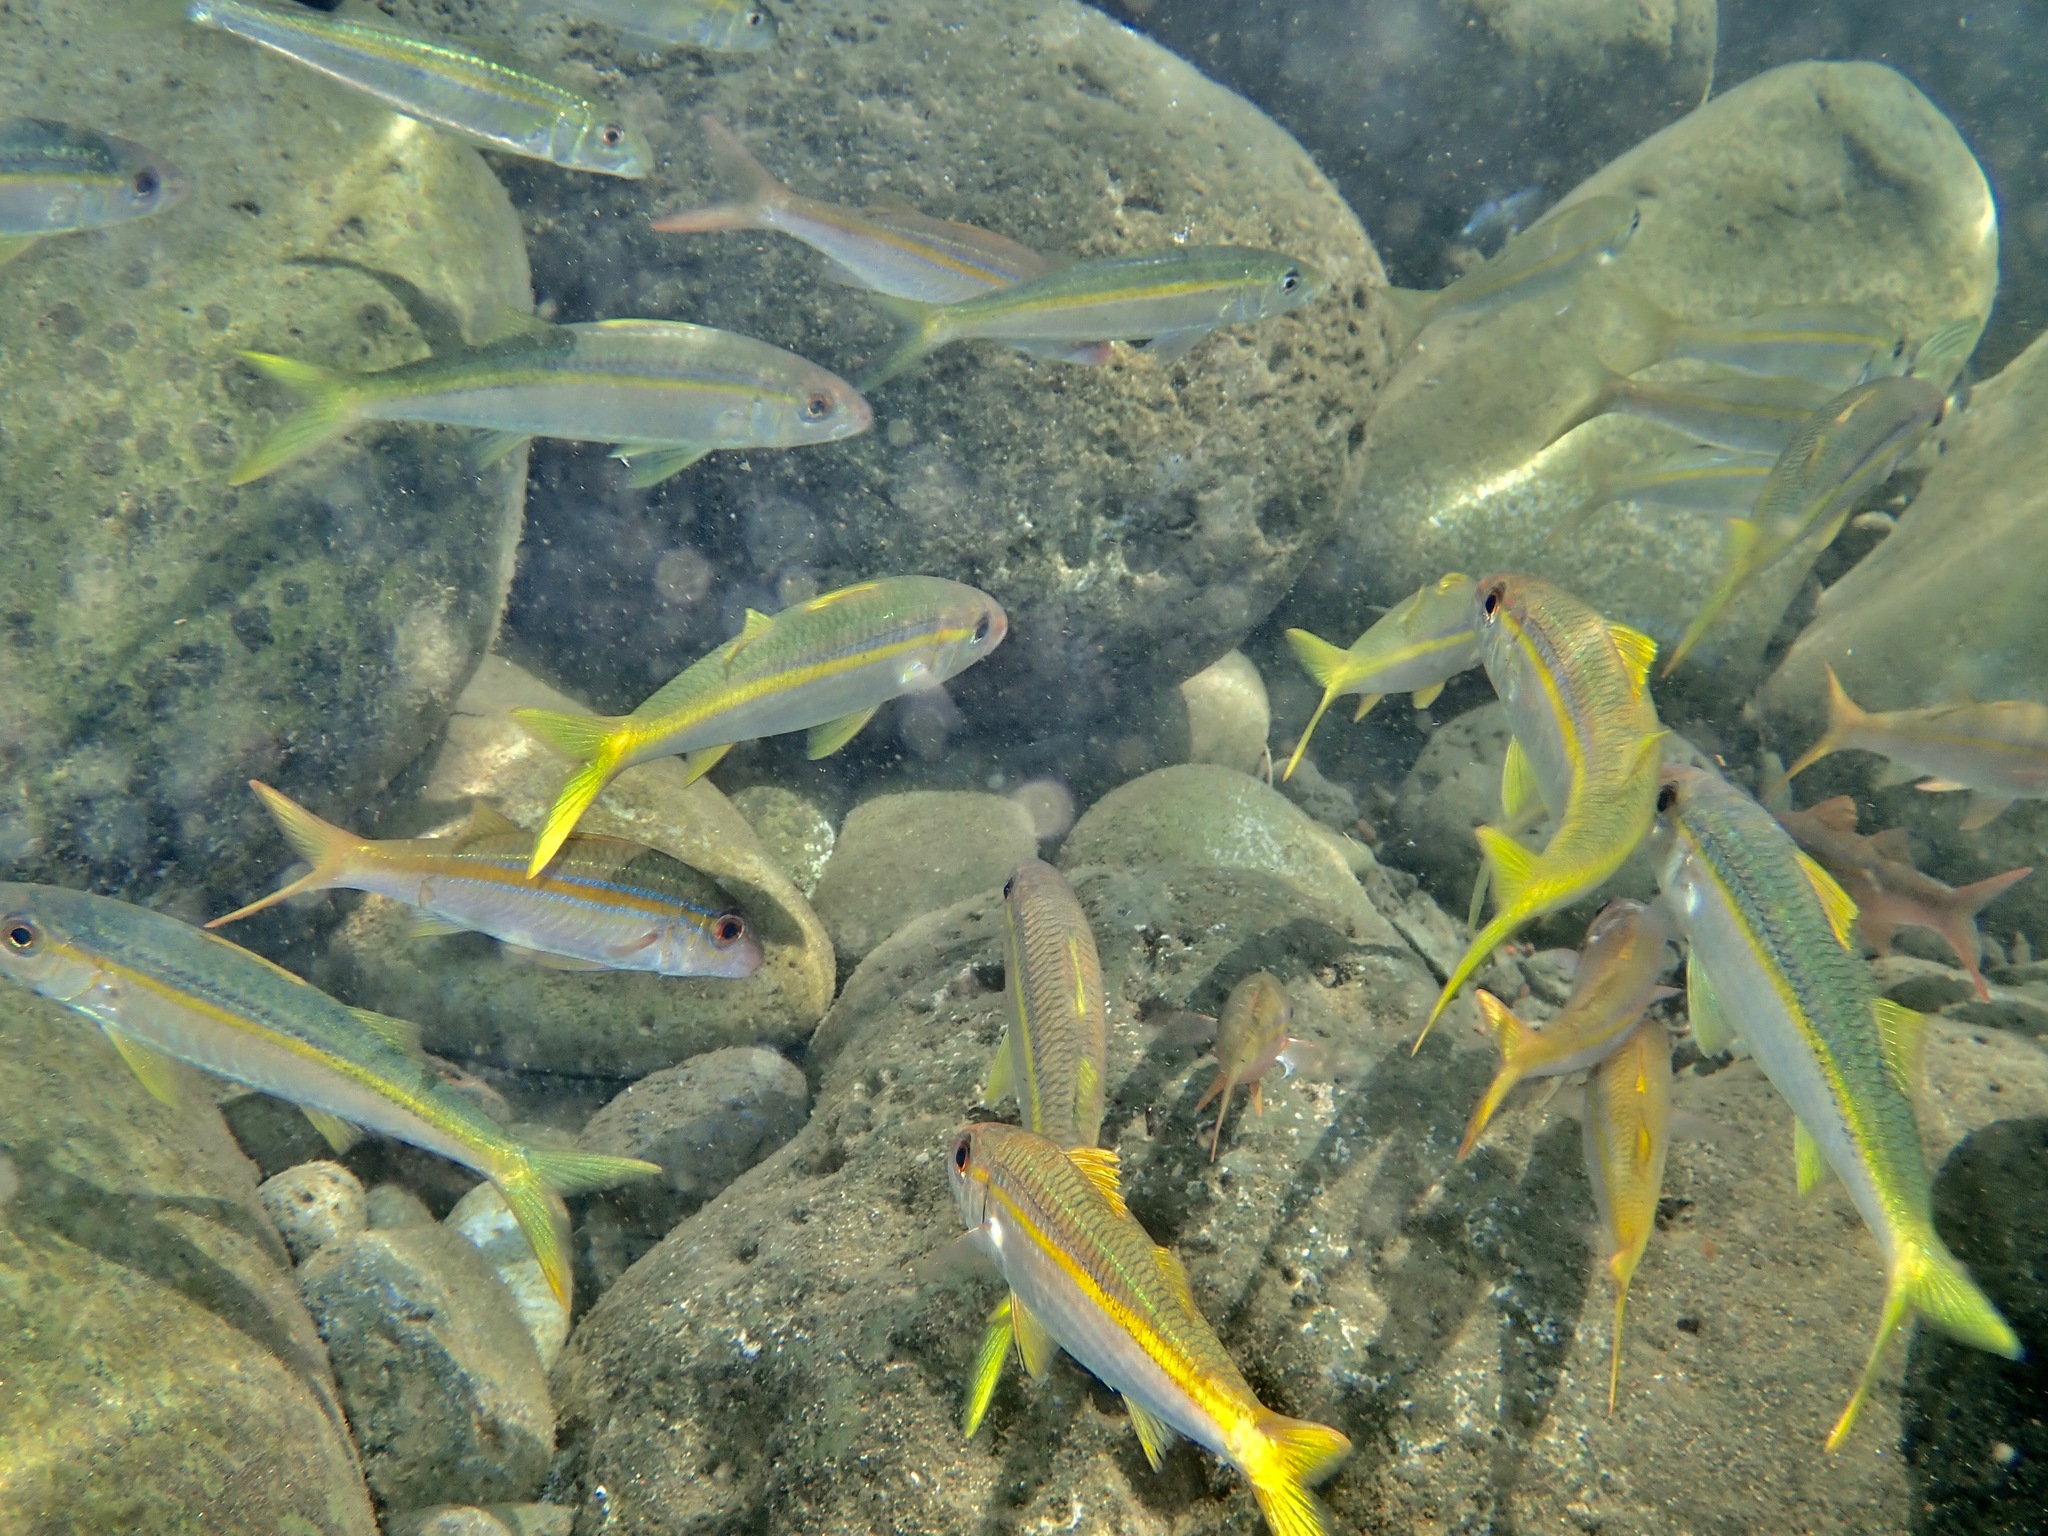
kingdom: Animalia
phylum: Chordata
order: Perciformes
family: Mullidae
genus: Mulloidichthys
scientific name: Mulloidichthys vanicolensis
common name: Yellowfin goatfish
